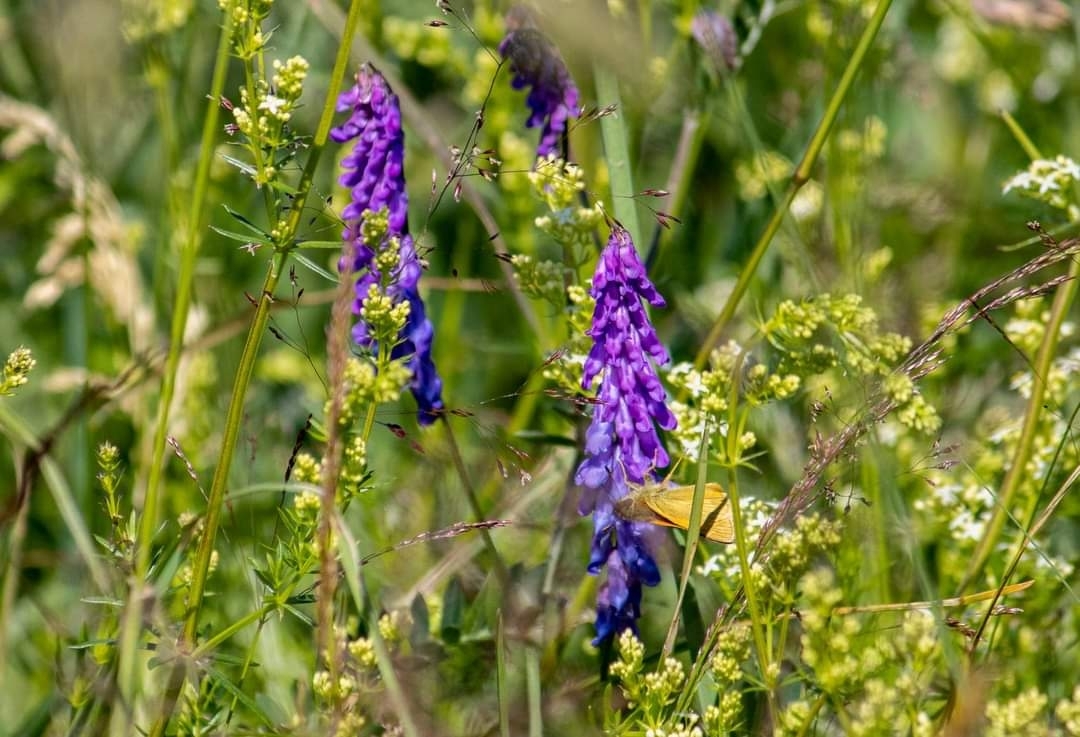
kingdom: Plantae
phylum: Tracheophyta
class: Magnoliopsida
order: Fabales
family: Fabaceae
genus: Vicia
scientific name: Vicia cracca
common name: Bird vetch
